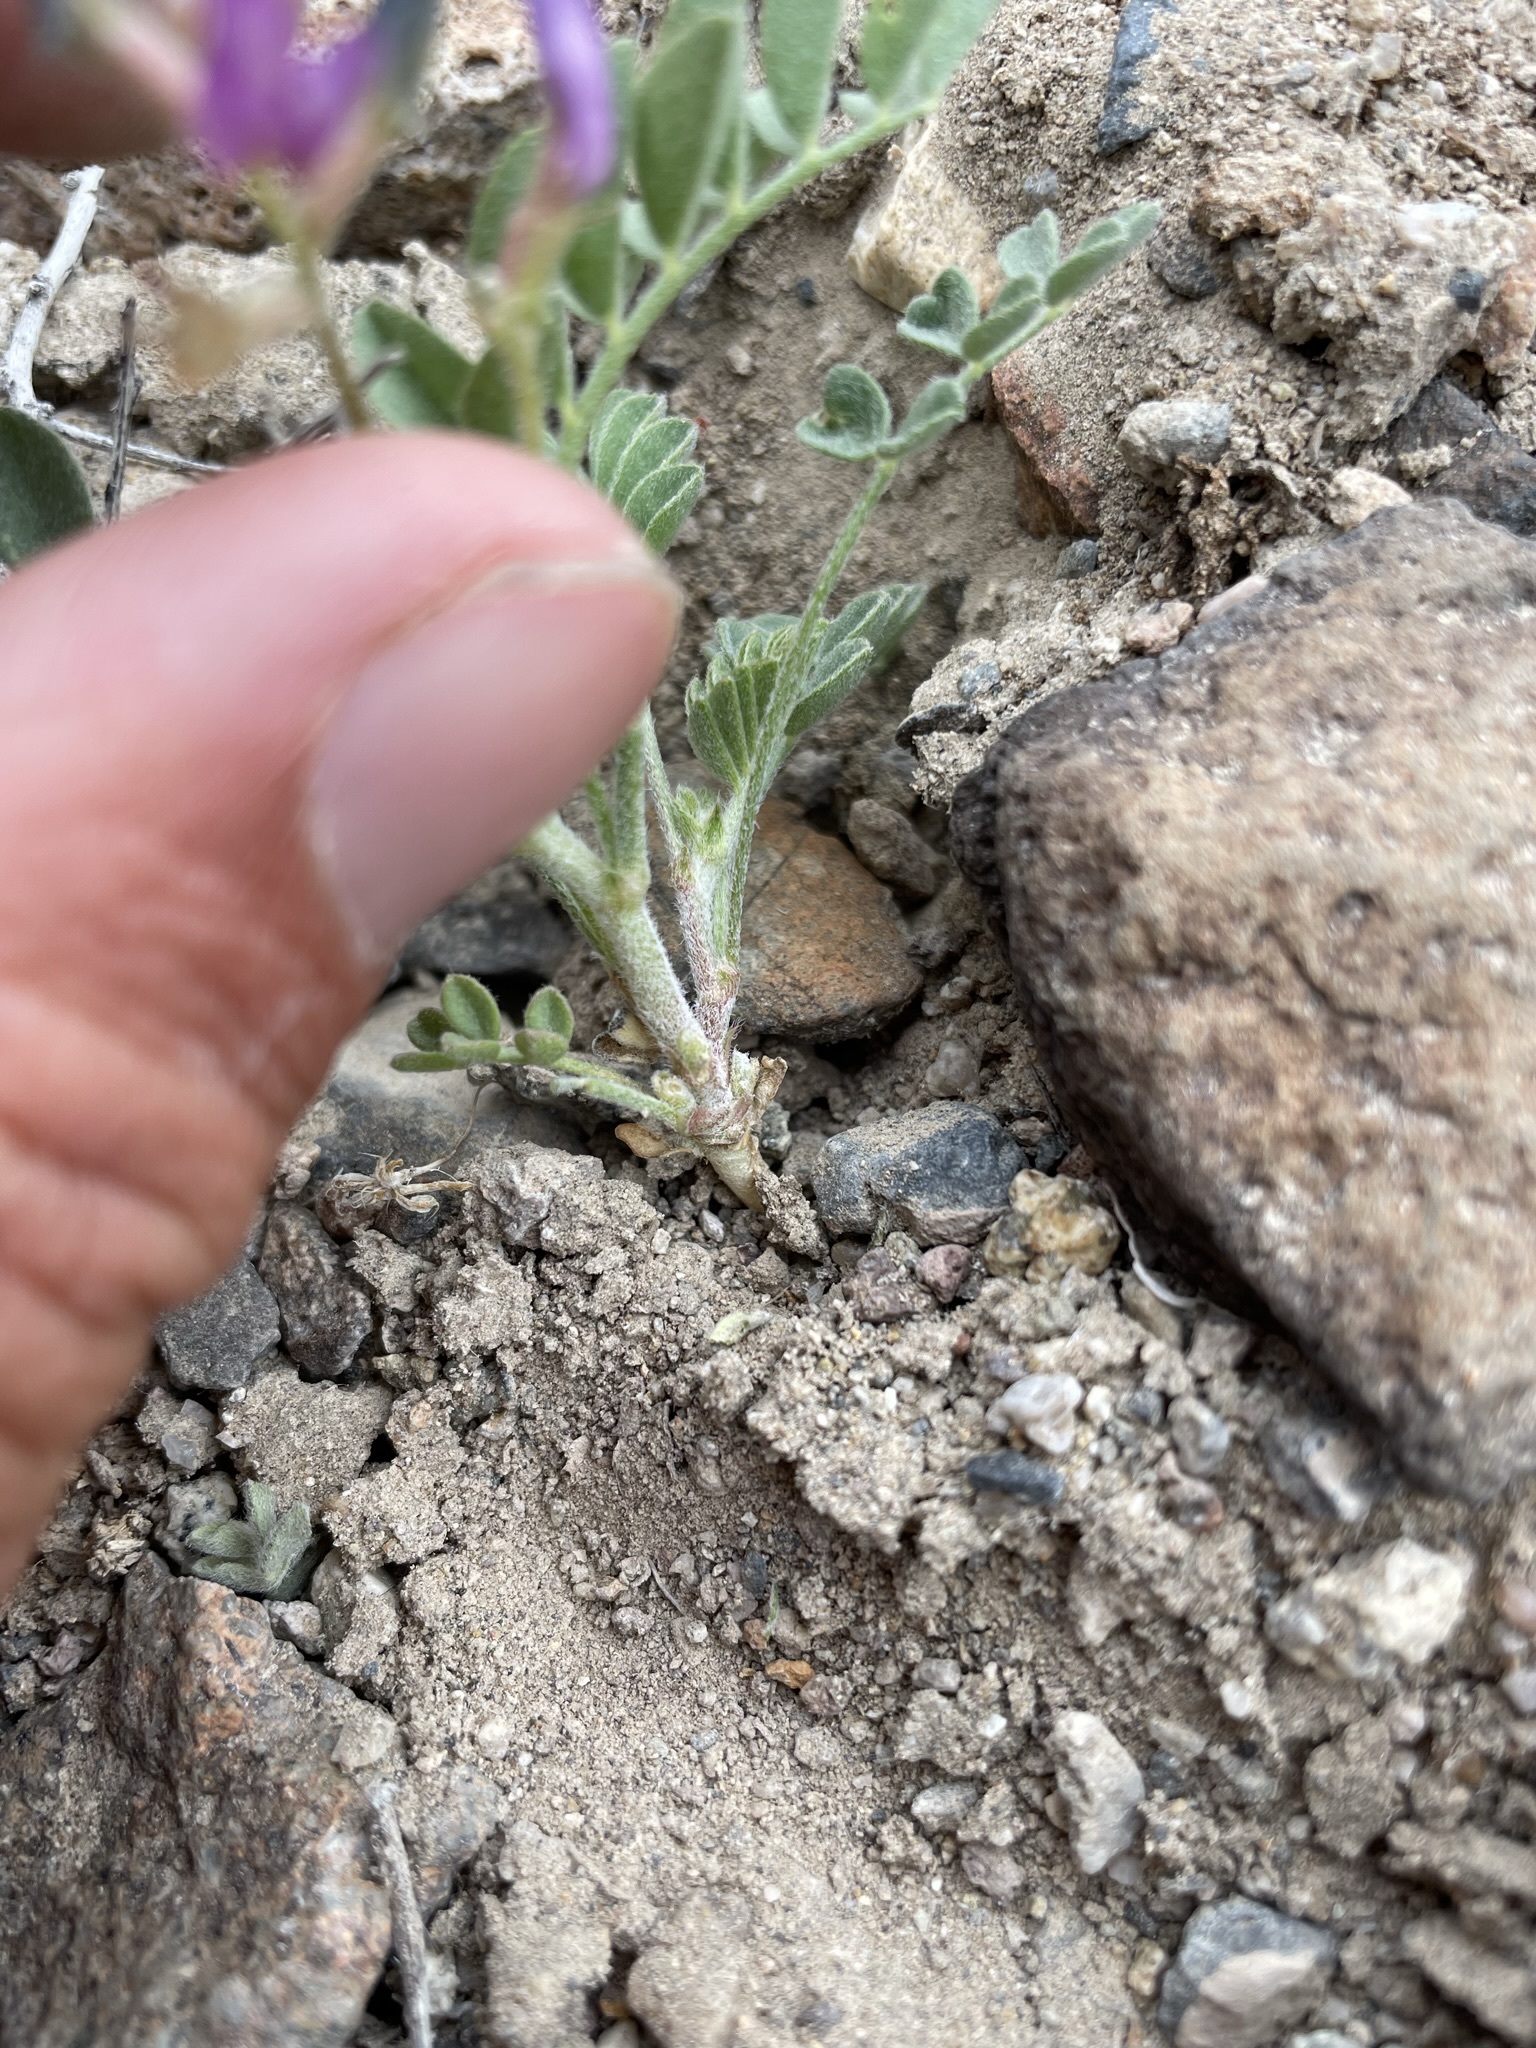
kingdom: Plantae
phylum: Tracheophyta
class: Magnoliopsida
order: Fabales
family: Fabaceae
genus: Astragalus
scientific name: Astragalus sabulonum
